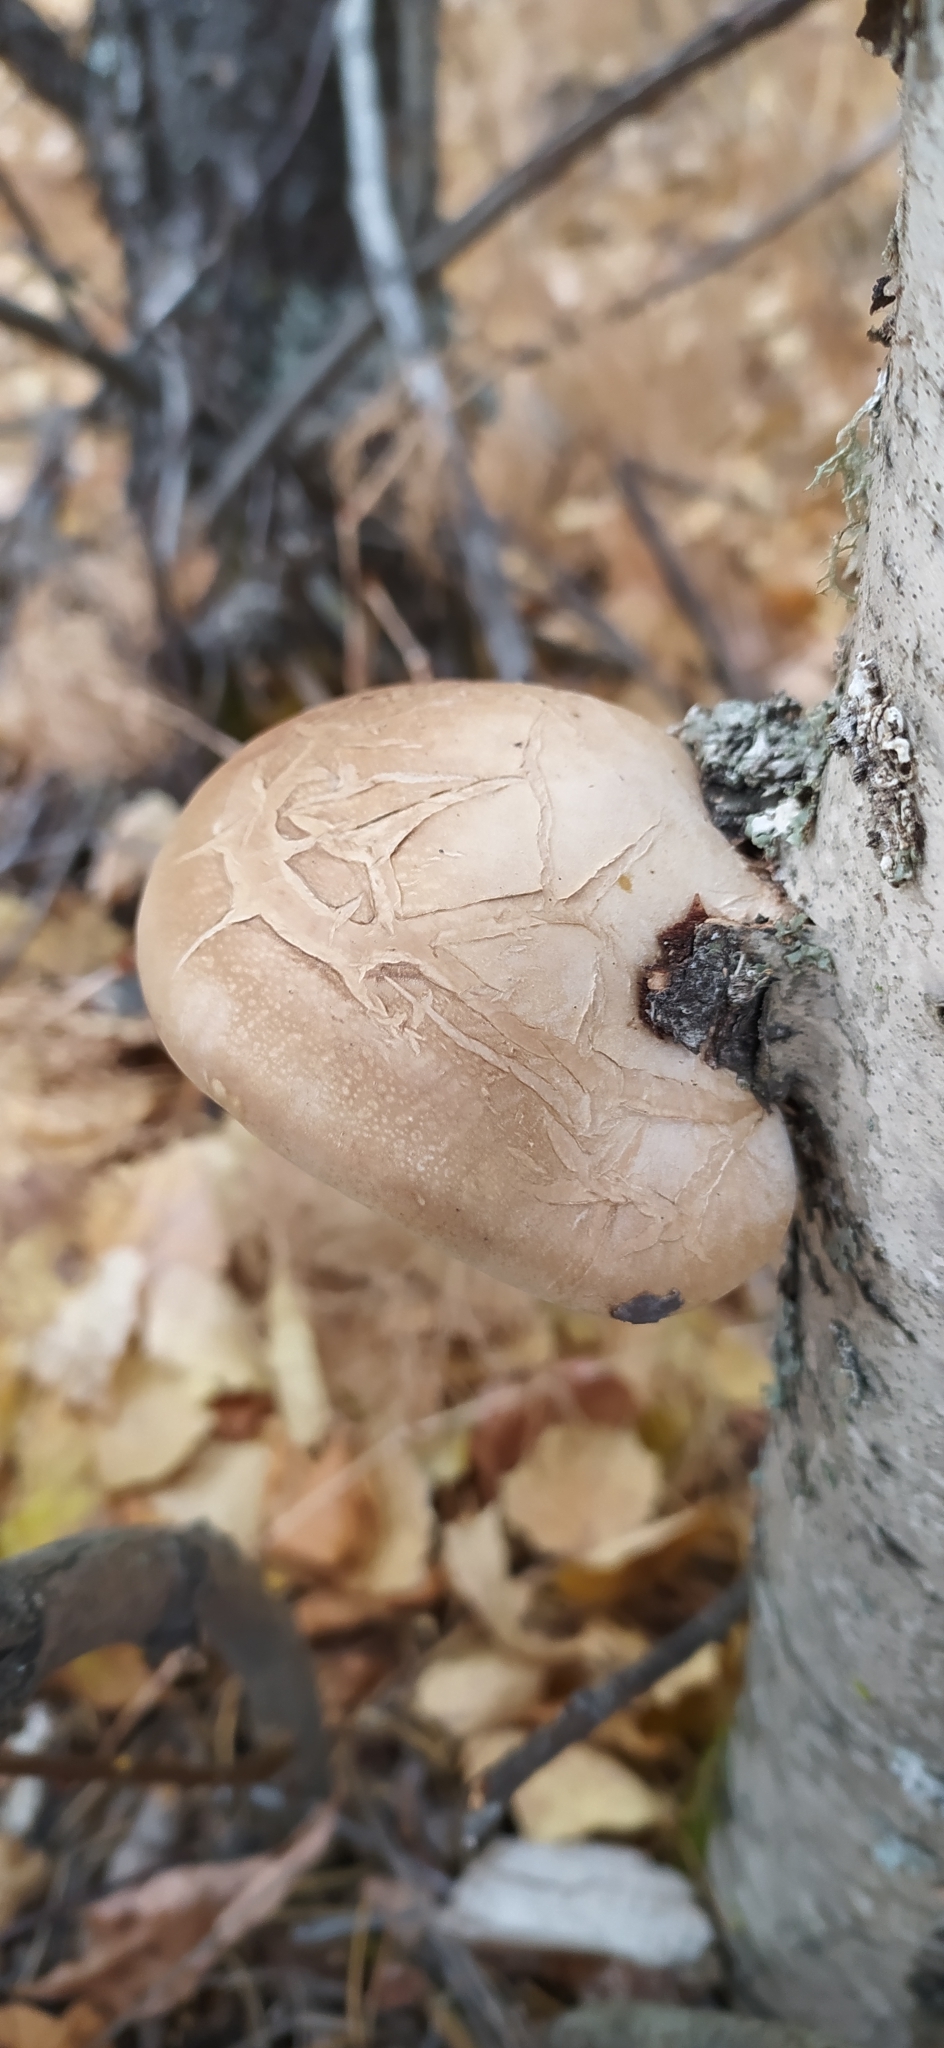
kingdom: Fungi
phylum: Basidiomycota
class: Agaricomycetes
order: Polyporales
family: Fomitopsidaceae
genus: Fomitopsis
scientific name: Fomitopsis betulina
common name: Birch polypore
